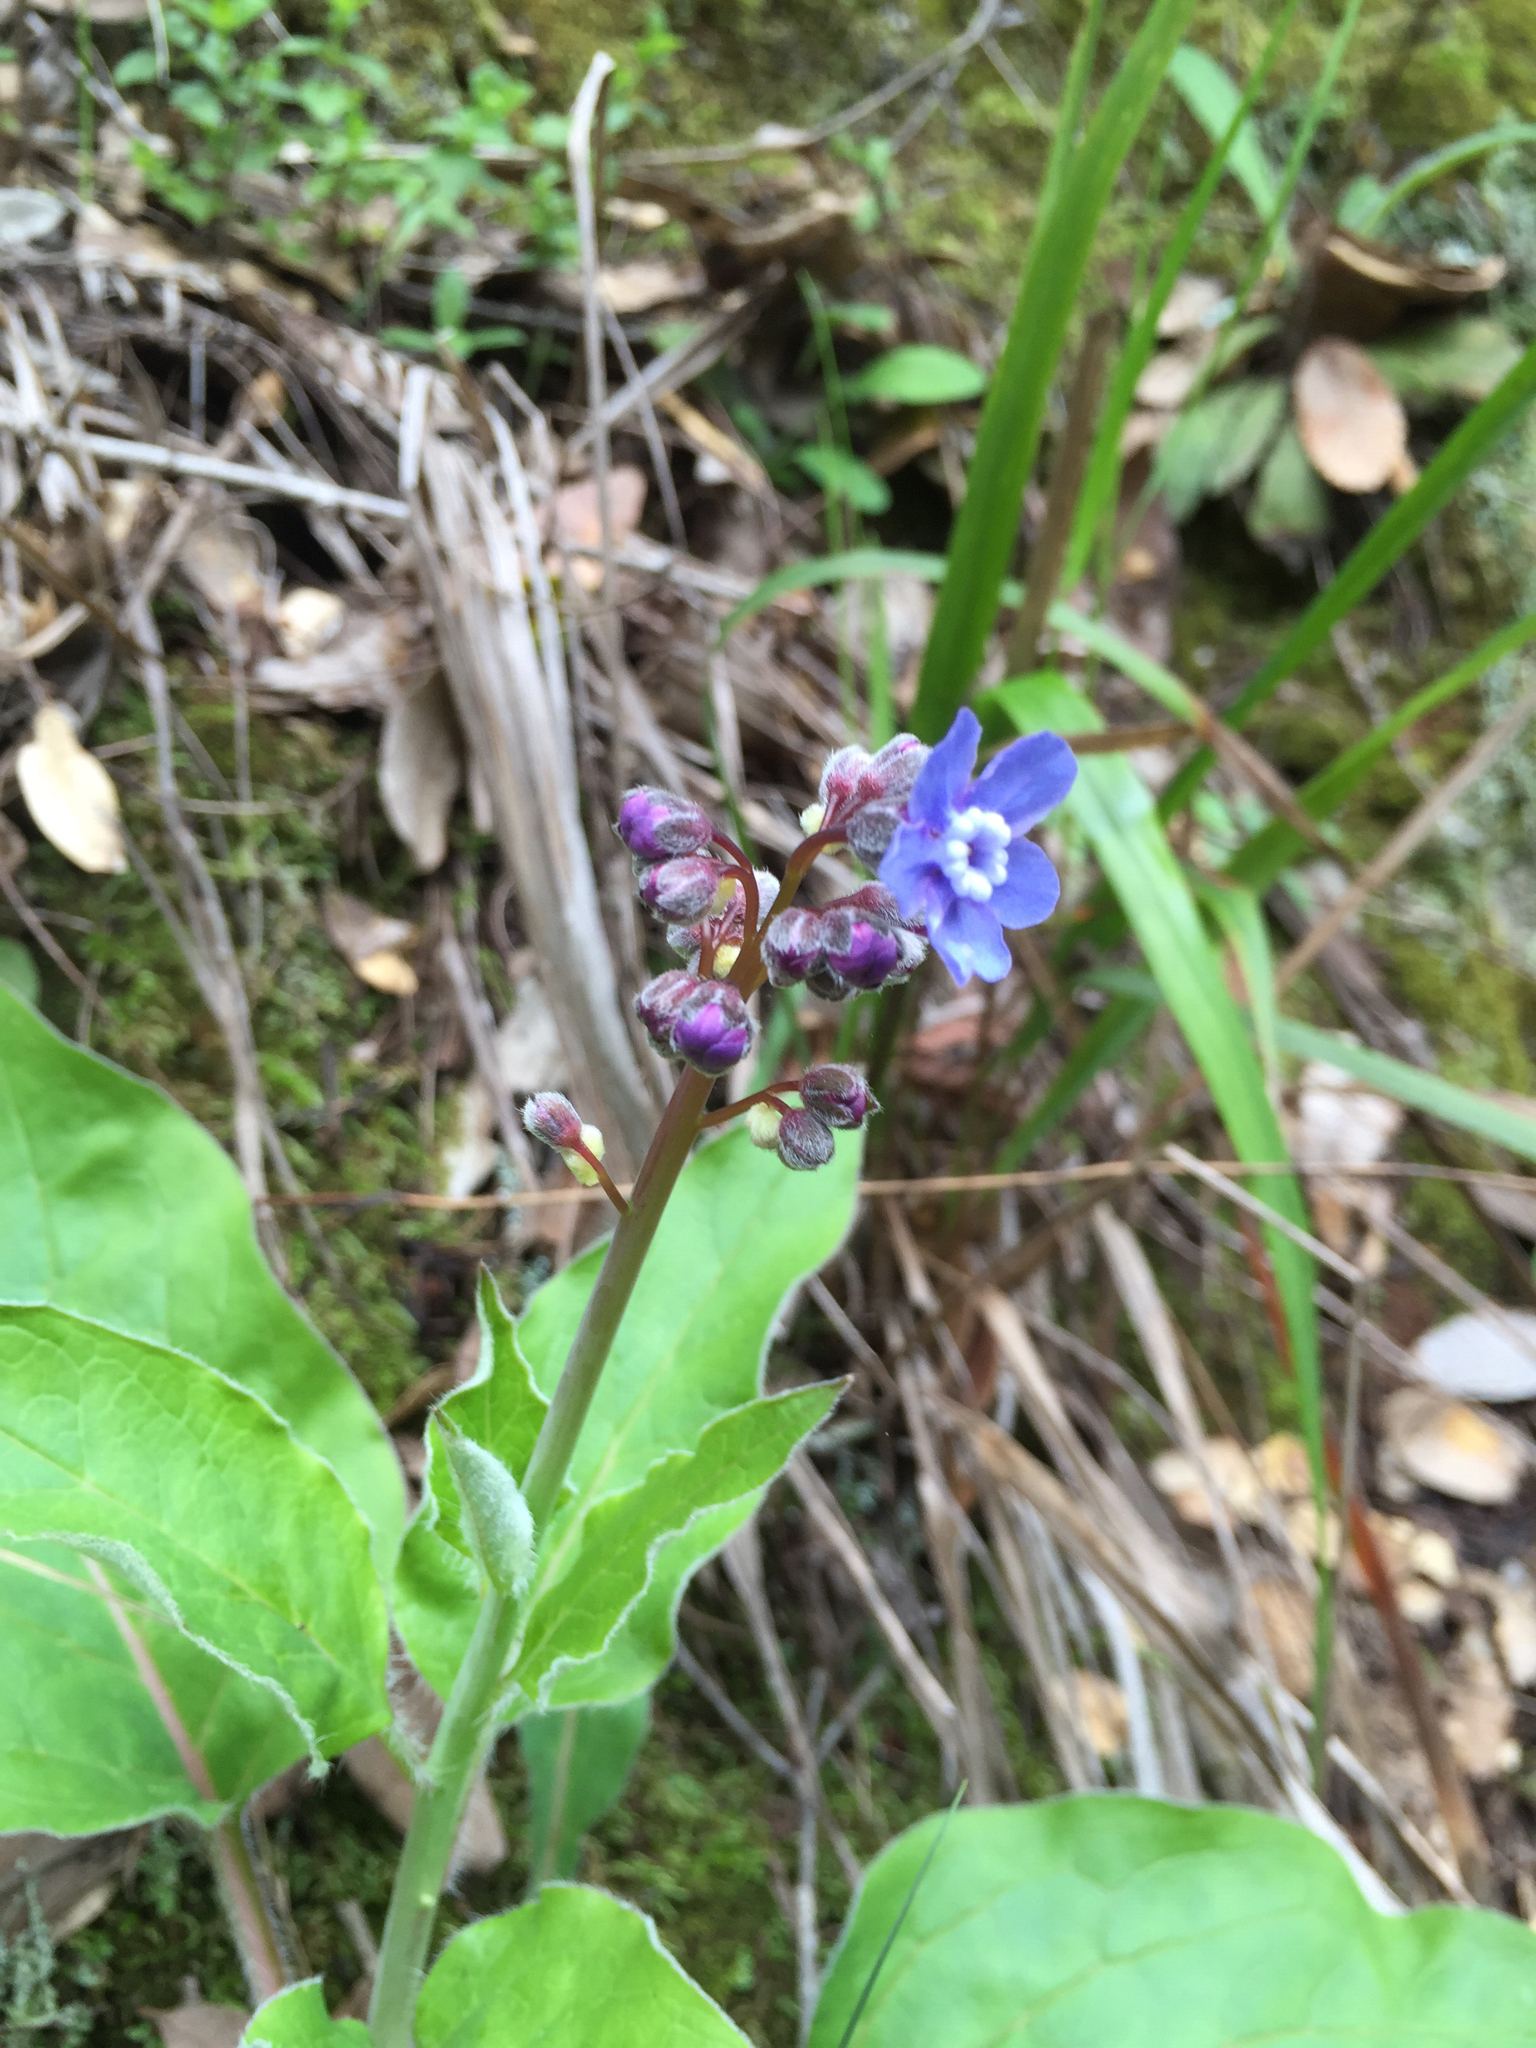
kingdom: Plantae
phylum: Tracheophyta
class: Magnoliopsida
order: Boraginales
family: Boraginaceae
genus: Adelinia
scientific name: Adelinia grande
